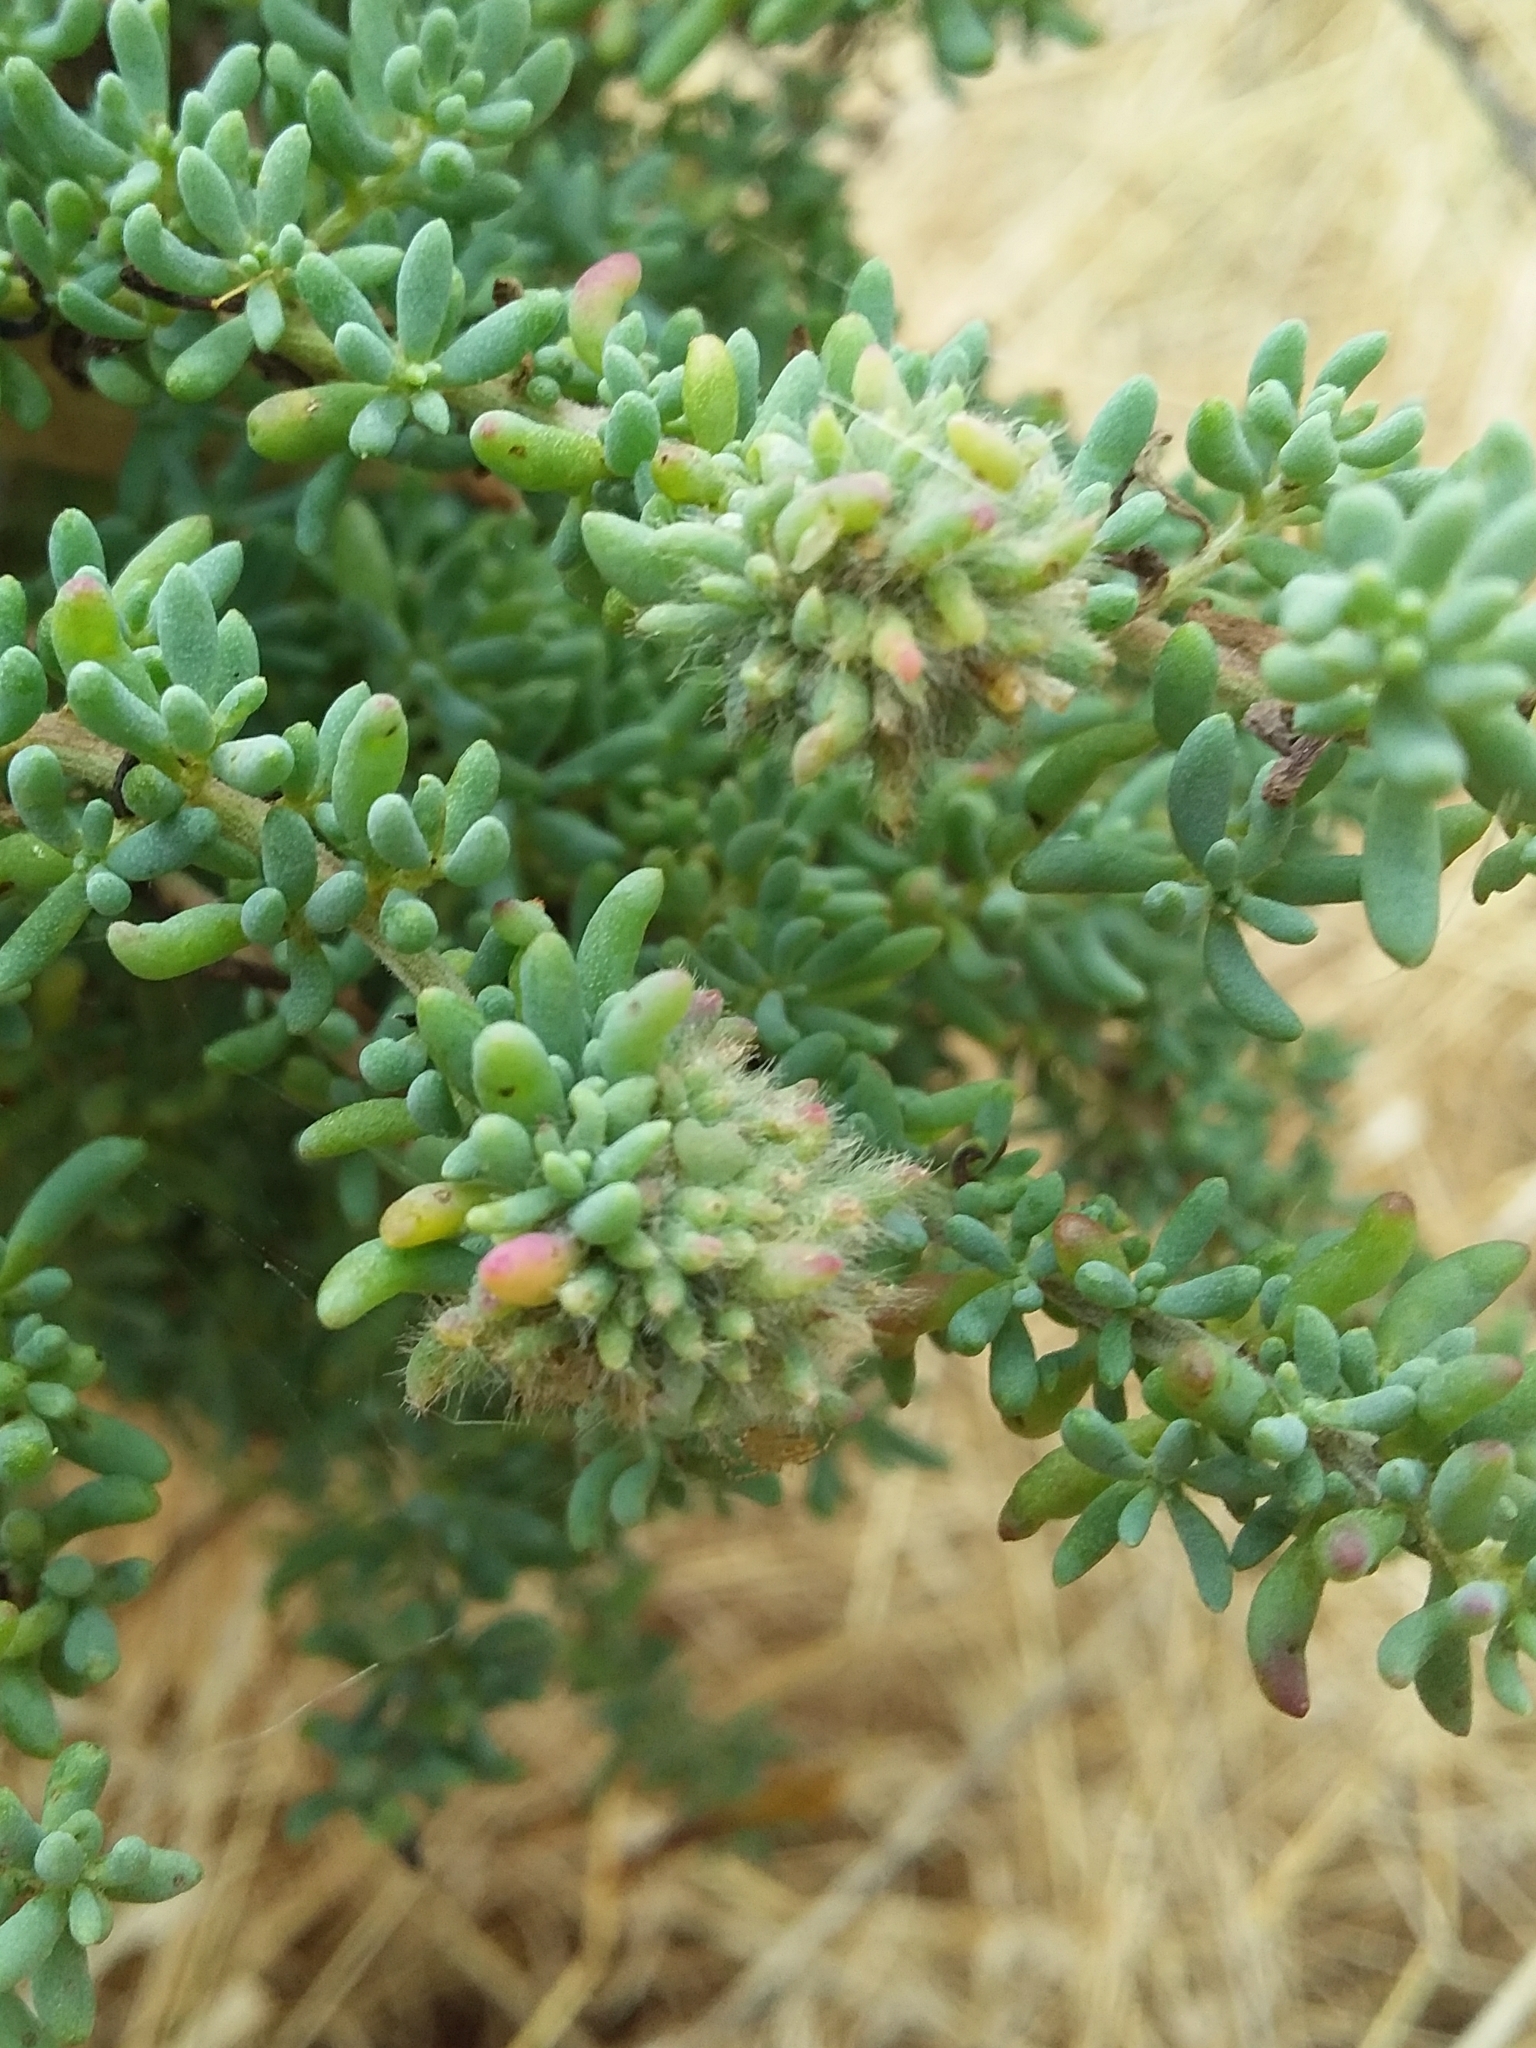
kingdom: Animalia
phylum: Arthropoda
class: Insecta
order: Diptera
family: Cecidomyiidae
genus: Dactylasioptera
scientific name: Dactylasioptera milnae
